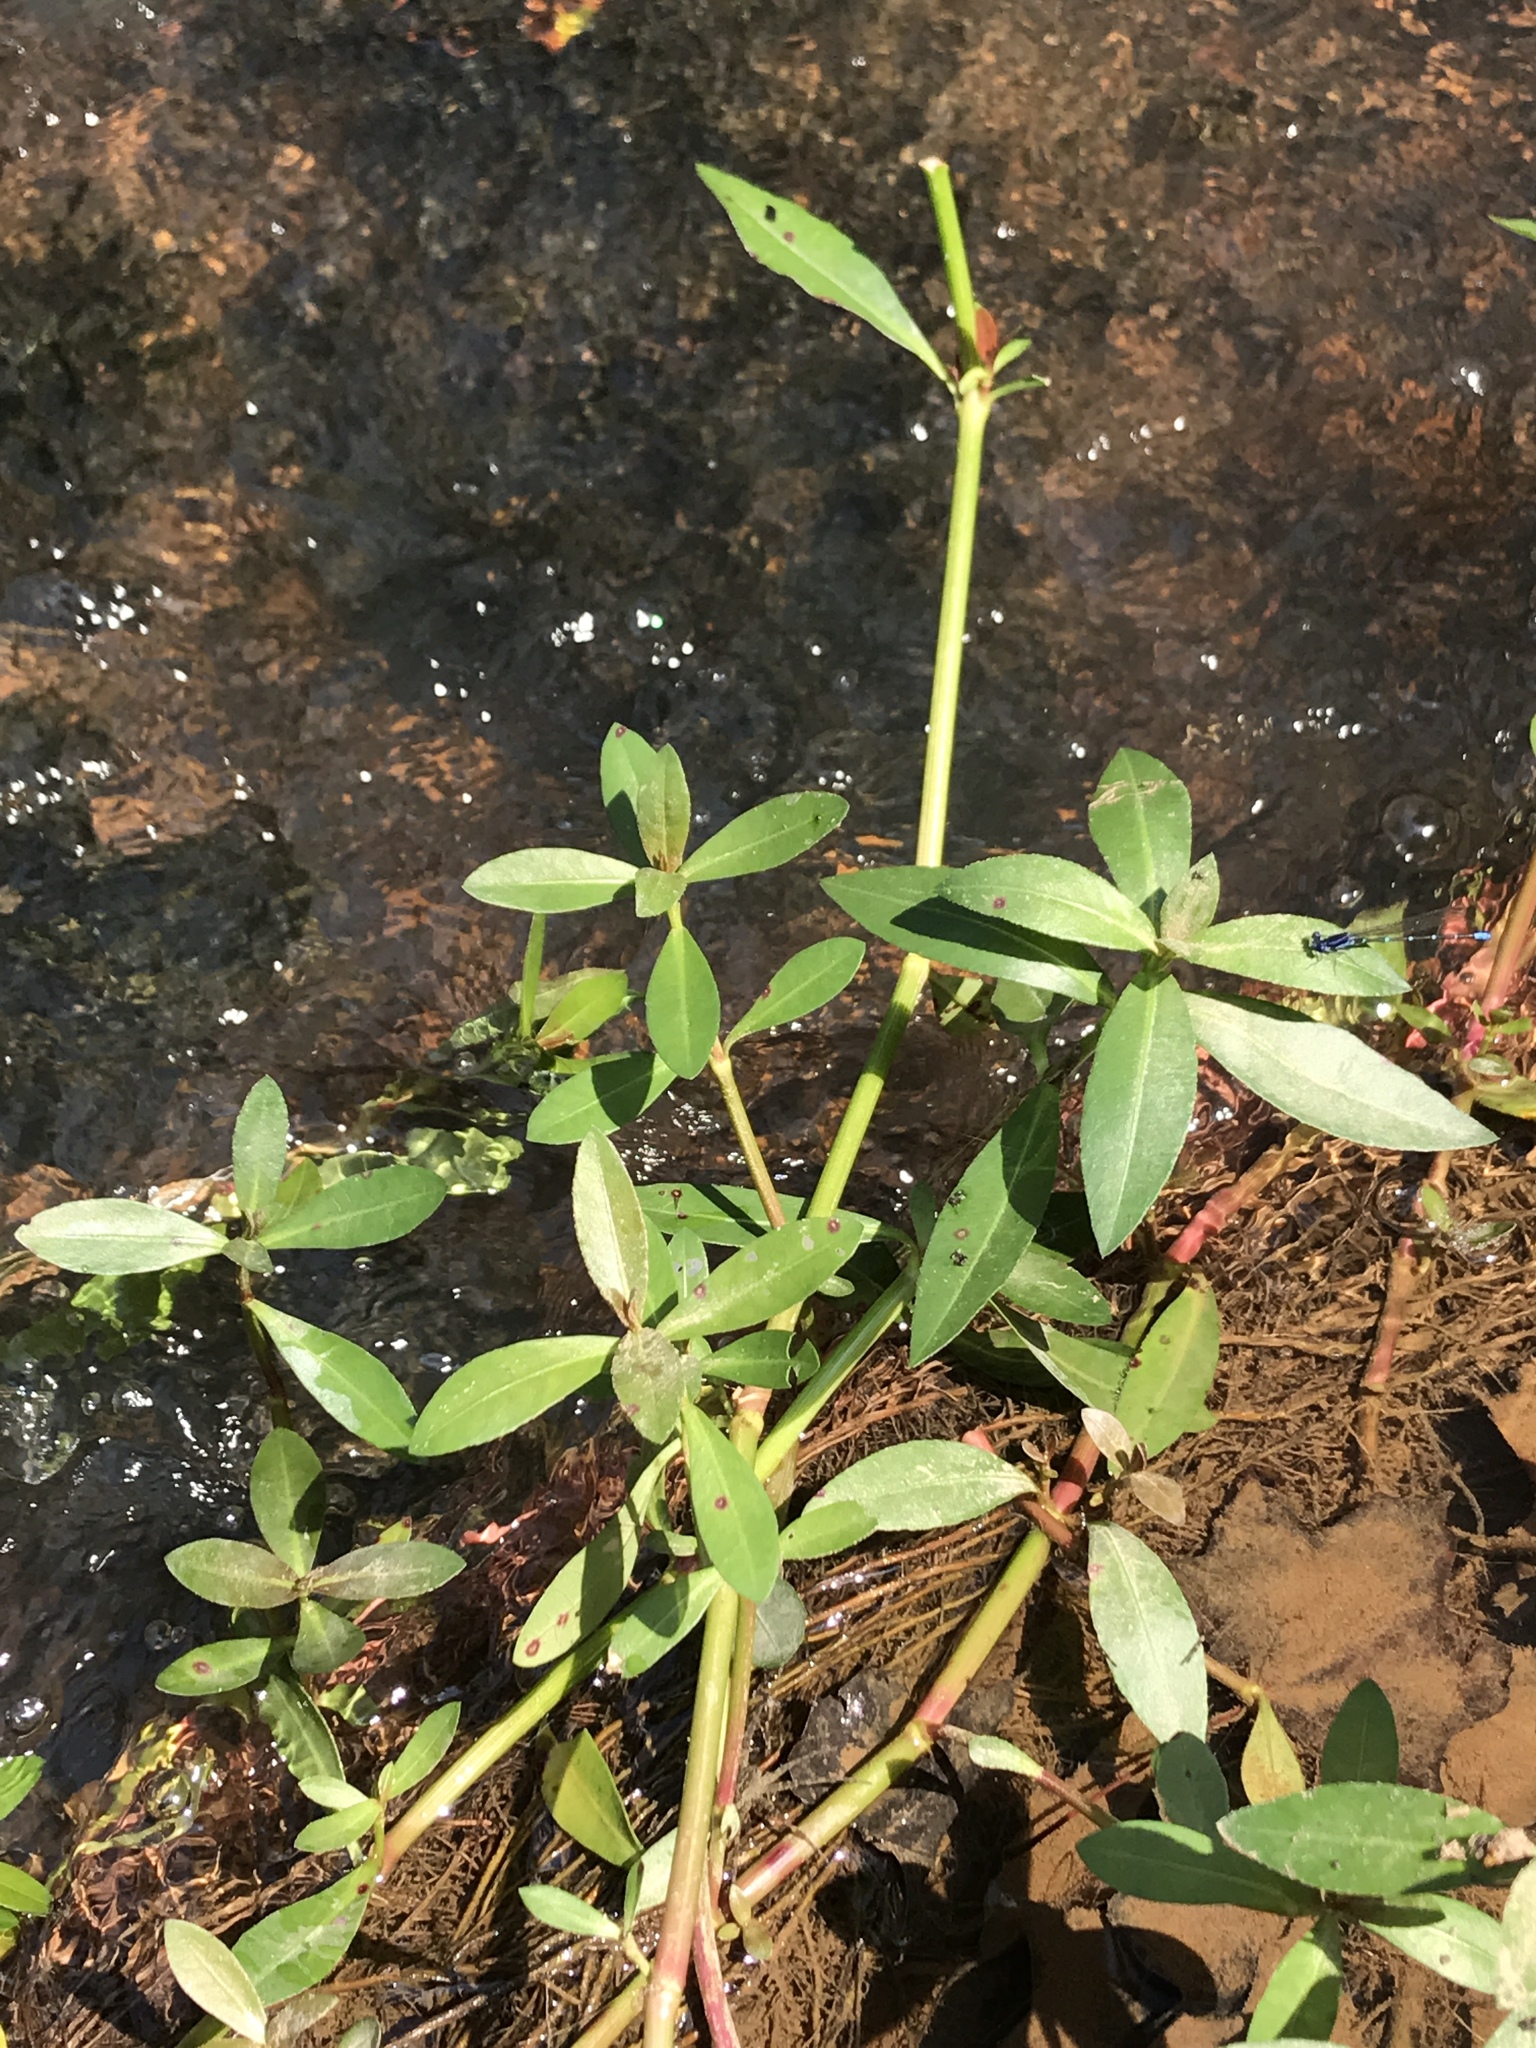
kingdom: Plantae
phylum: Tracheophyta
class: Magnoliopsida
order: Caryophyllales
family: Amaranthaceae
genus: Alternanthera
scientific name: Alternanthera philoxeroides
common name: Alligatorweed
